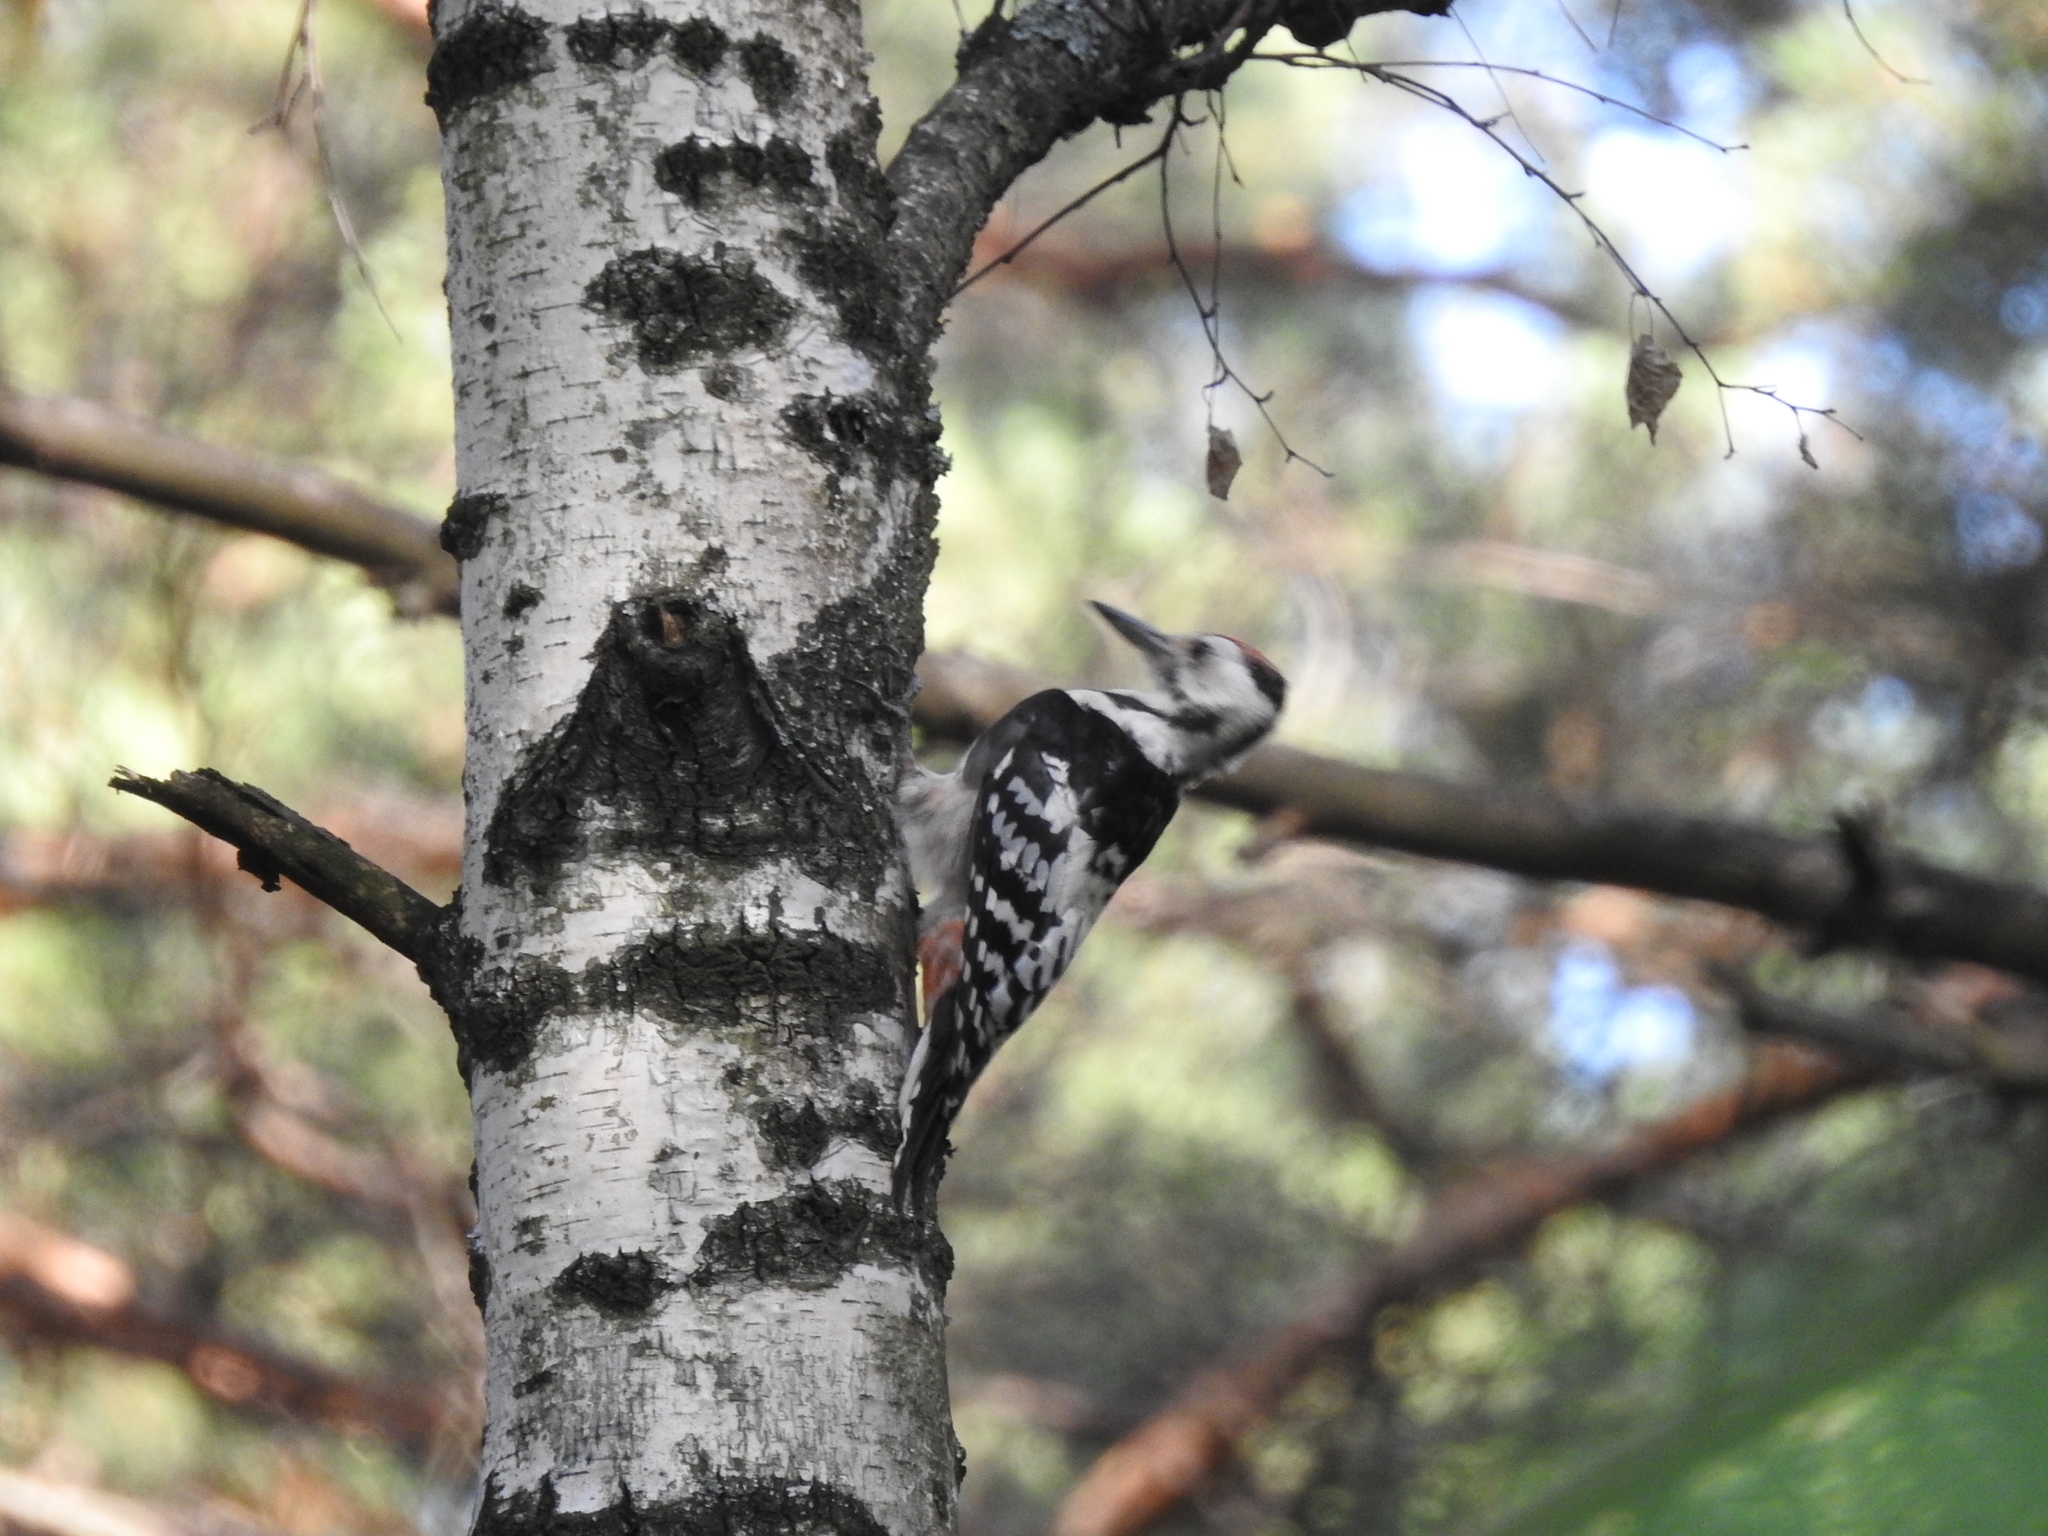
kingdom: Animalia
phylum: Chordata
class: Aves
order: Piciformes
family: Picidae
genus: Dendrocopos
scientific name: Dendrocopos leucotos
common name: White-backed woodpecker
